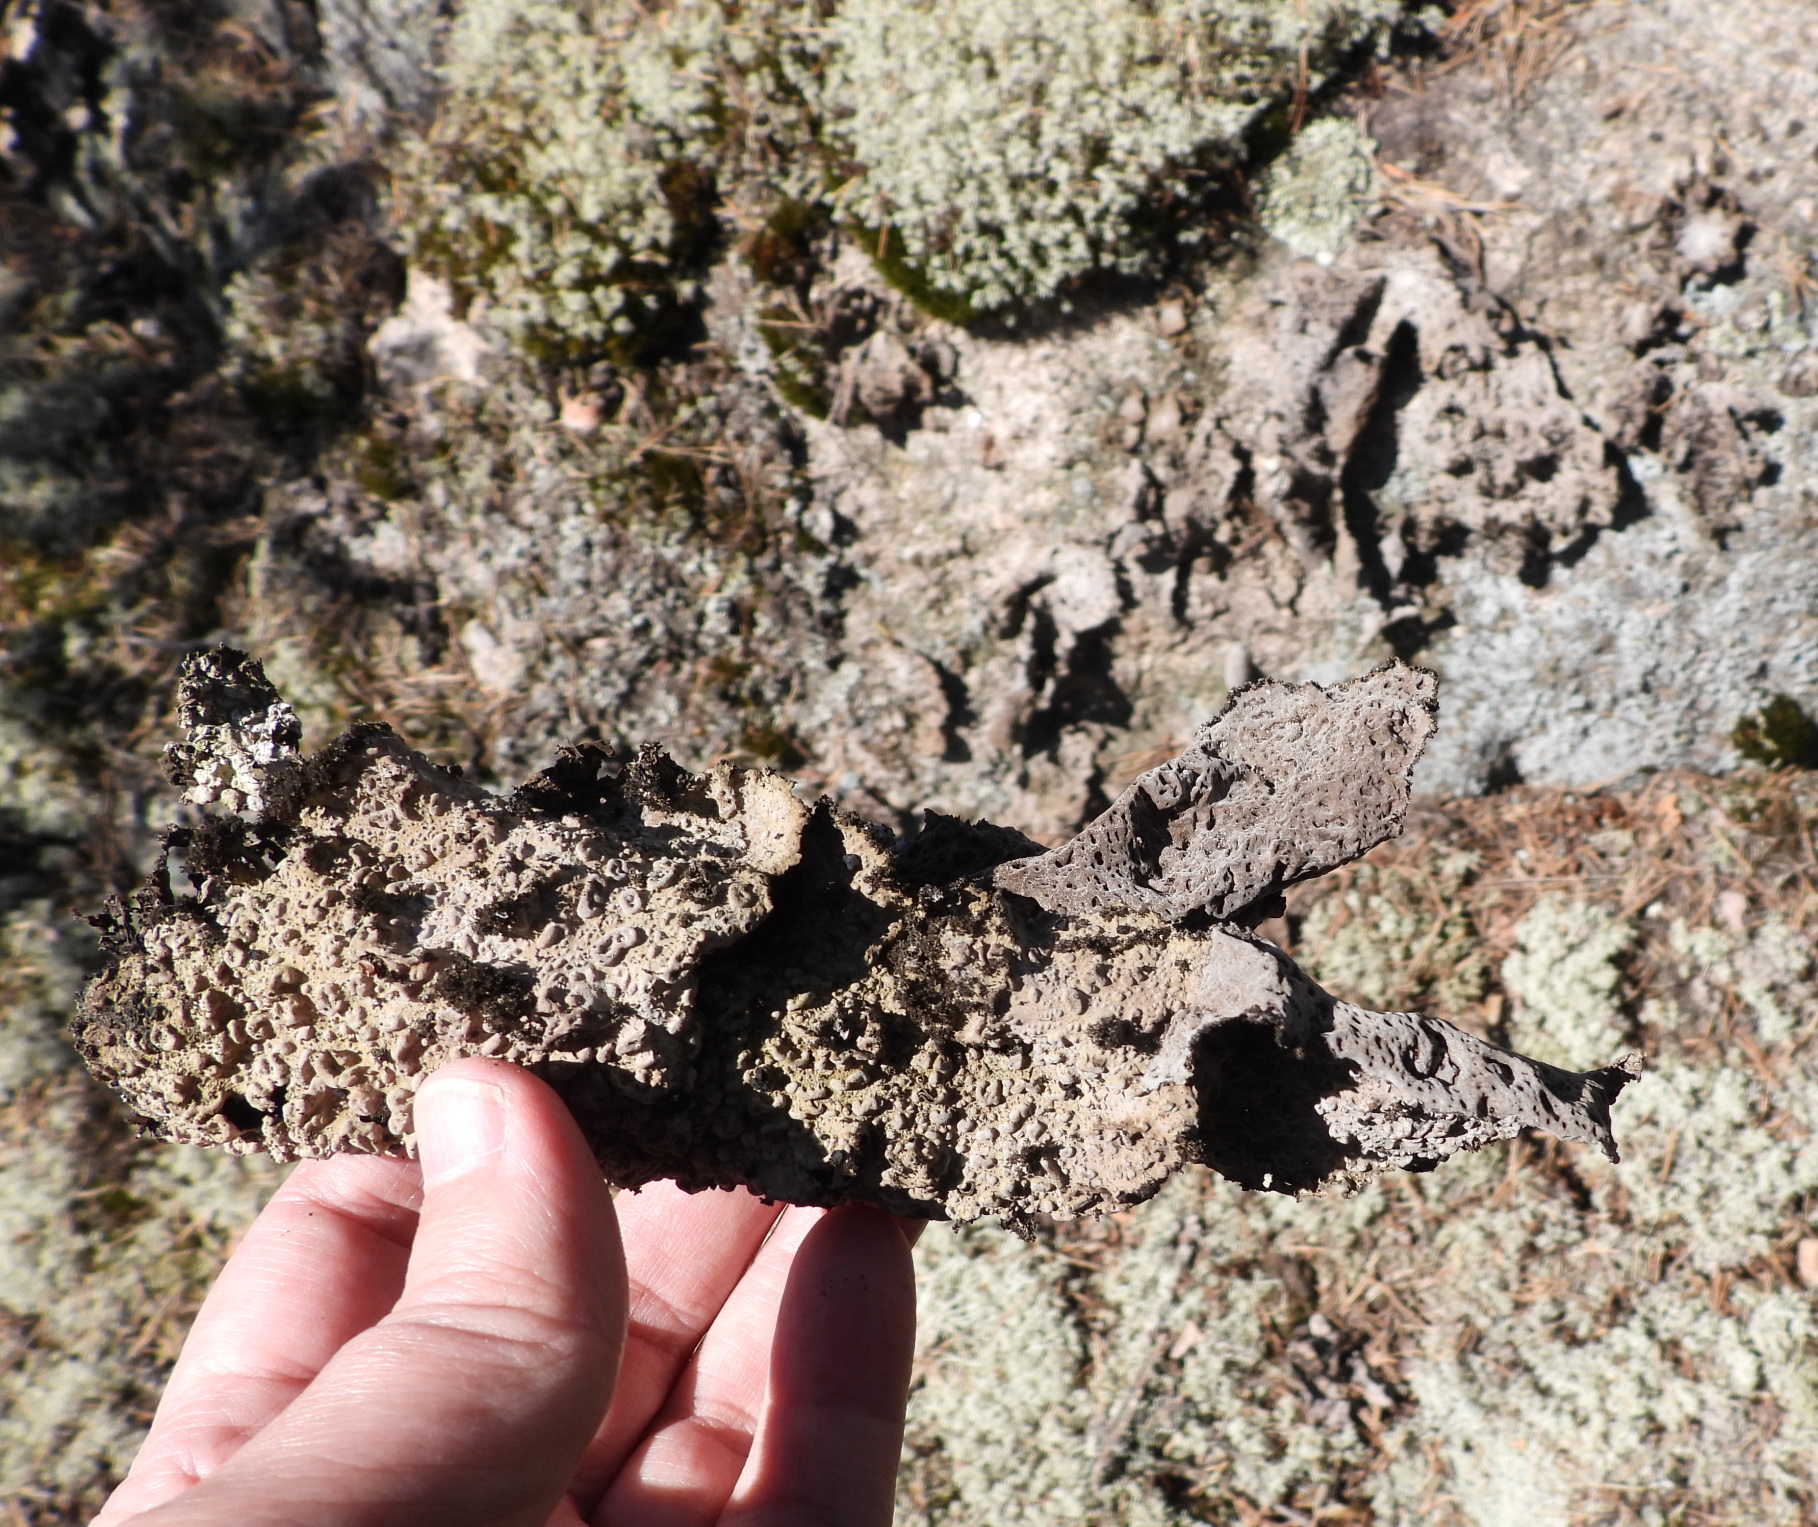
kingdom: Fungi
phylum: Ascomycota
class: Lecanoromycetes
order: Umbilicariales
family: Umbilicariaceae
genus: Lasallia
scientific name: Lasallia pustulata
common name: Blistered toadskin lichen
